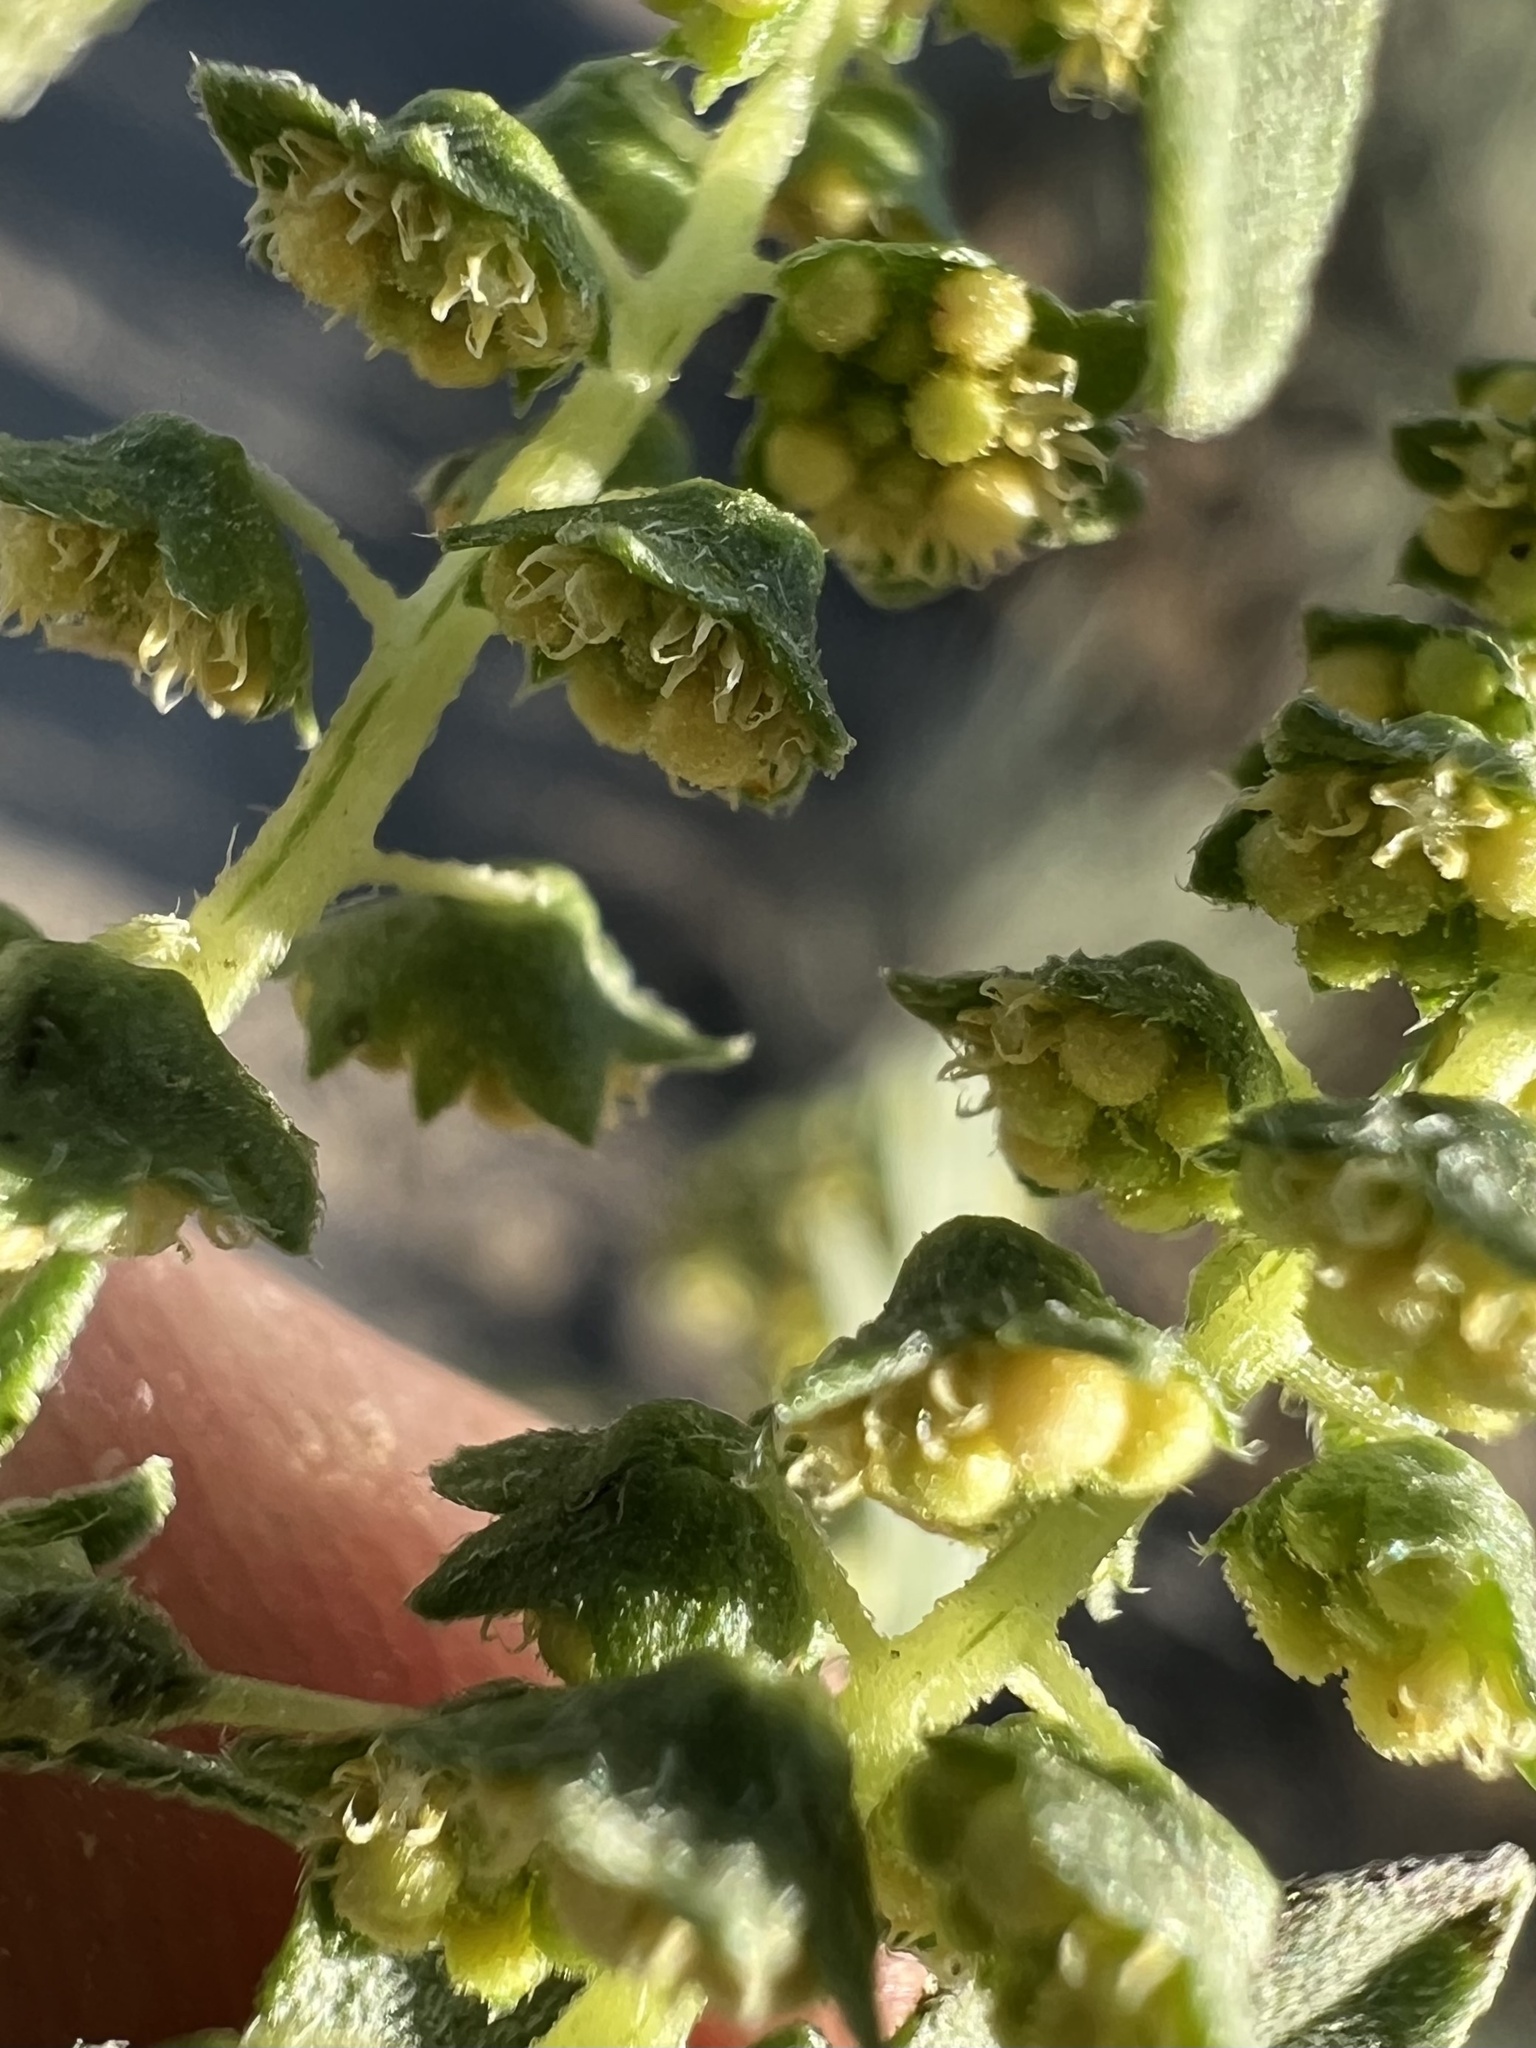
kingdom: Plantae
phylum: Tracheophyta
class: Magnoliopsida
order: Asterales
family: Asteraceae
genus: Ambrosia
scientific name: Ambrosia acanthicarpa
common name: Hooker's bur ragweed
